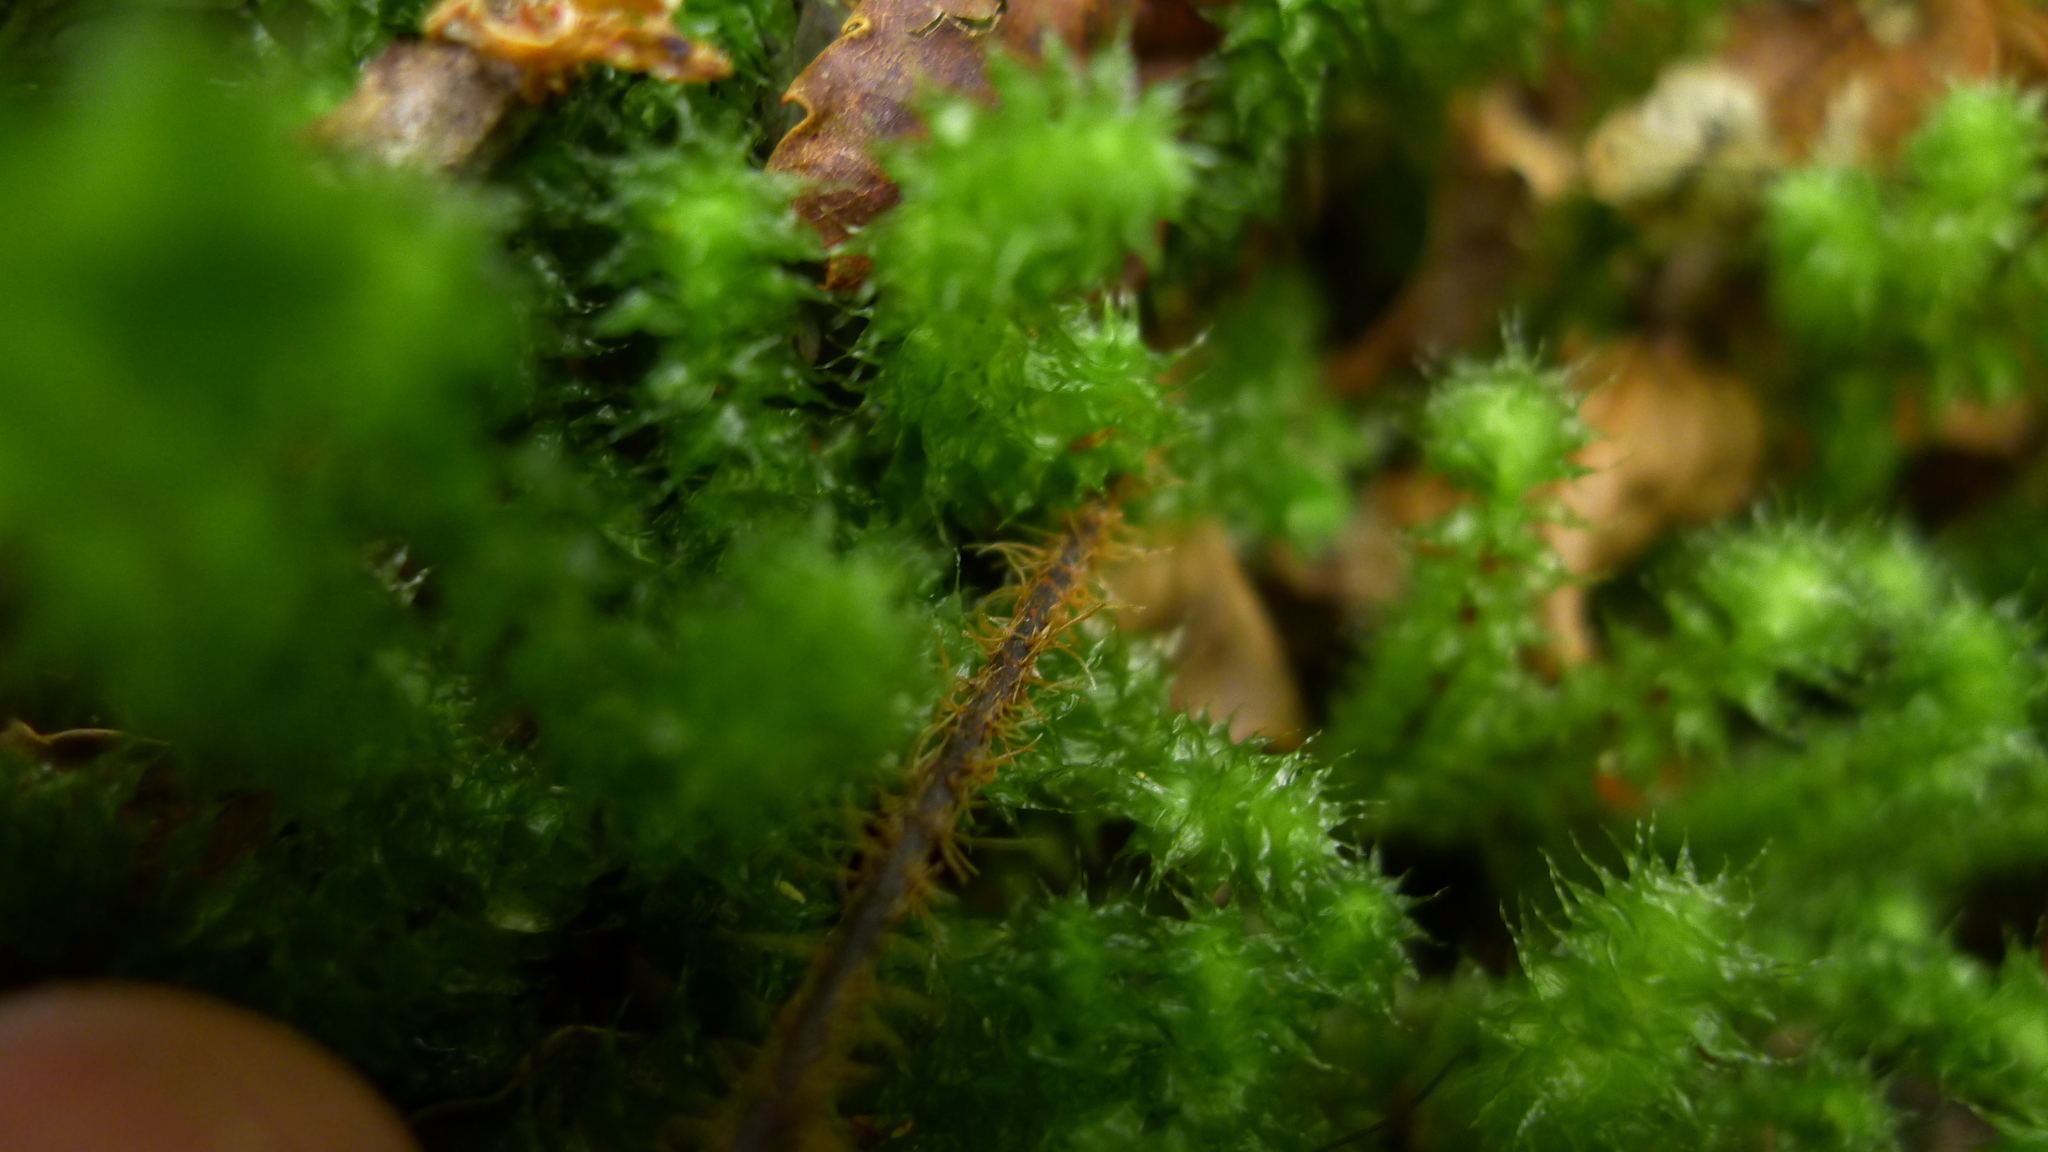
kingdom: Plantae
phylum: Tracheophyta
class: Polypodiopsida
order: Hymenophyllales
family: Hymenophyllaceae
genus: Hymenophyllum
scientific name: Hymenophyllum scabrum
